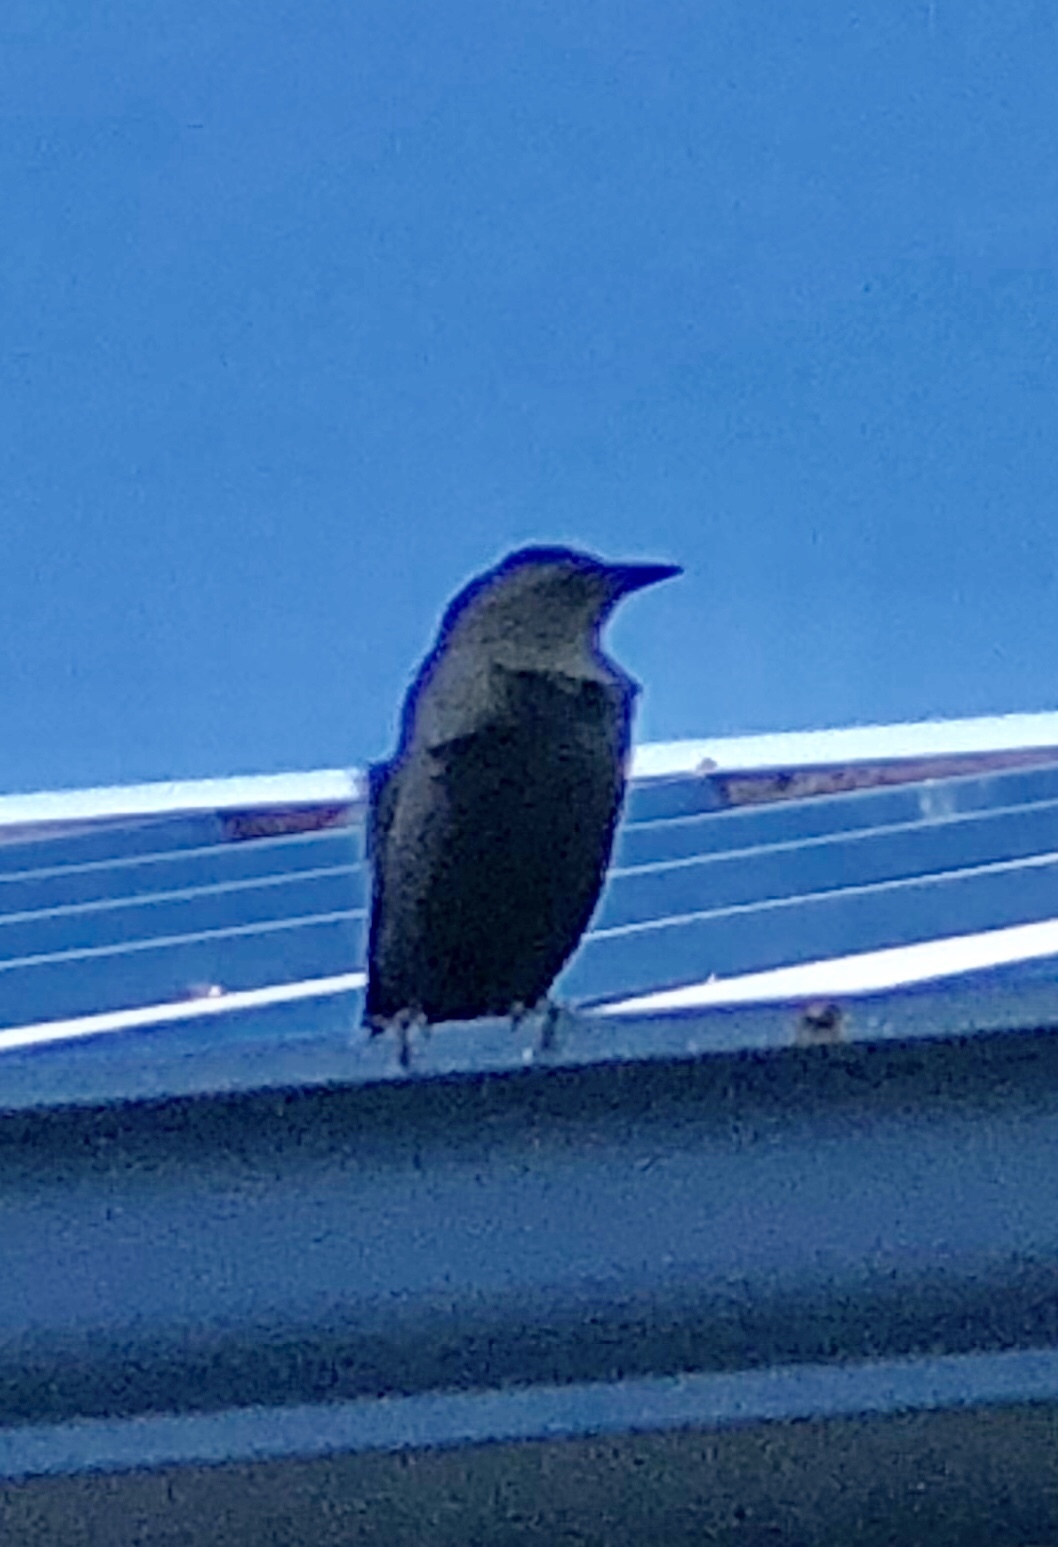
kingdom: Animalia
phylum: Chordata
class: Aves
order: Passeriformes
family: Sturnidae
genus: Sturnus
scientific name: Sturnus vulgaris
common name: Common starling
